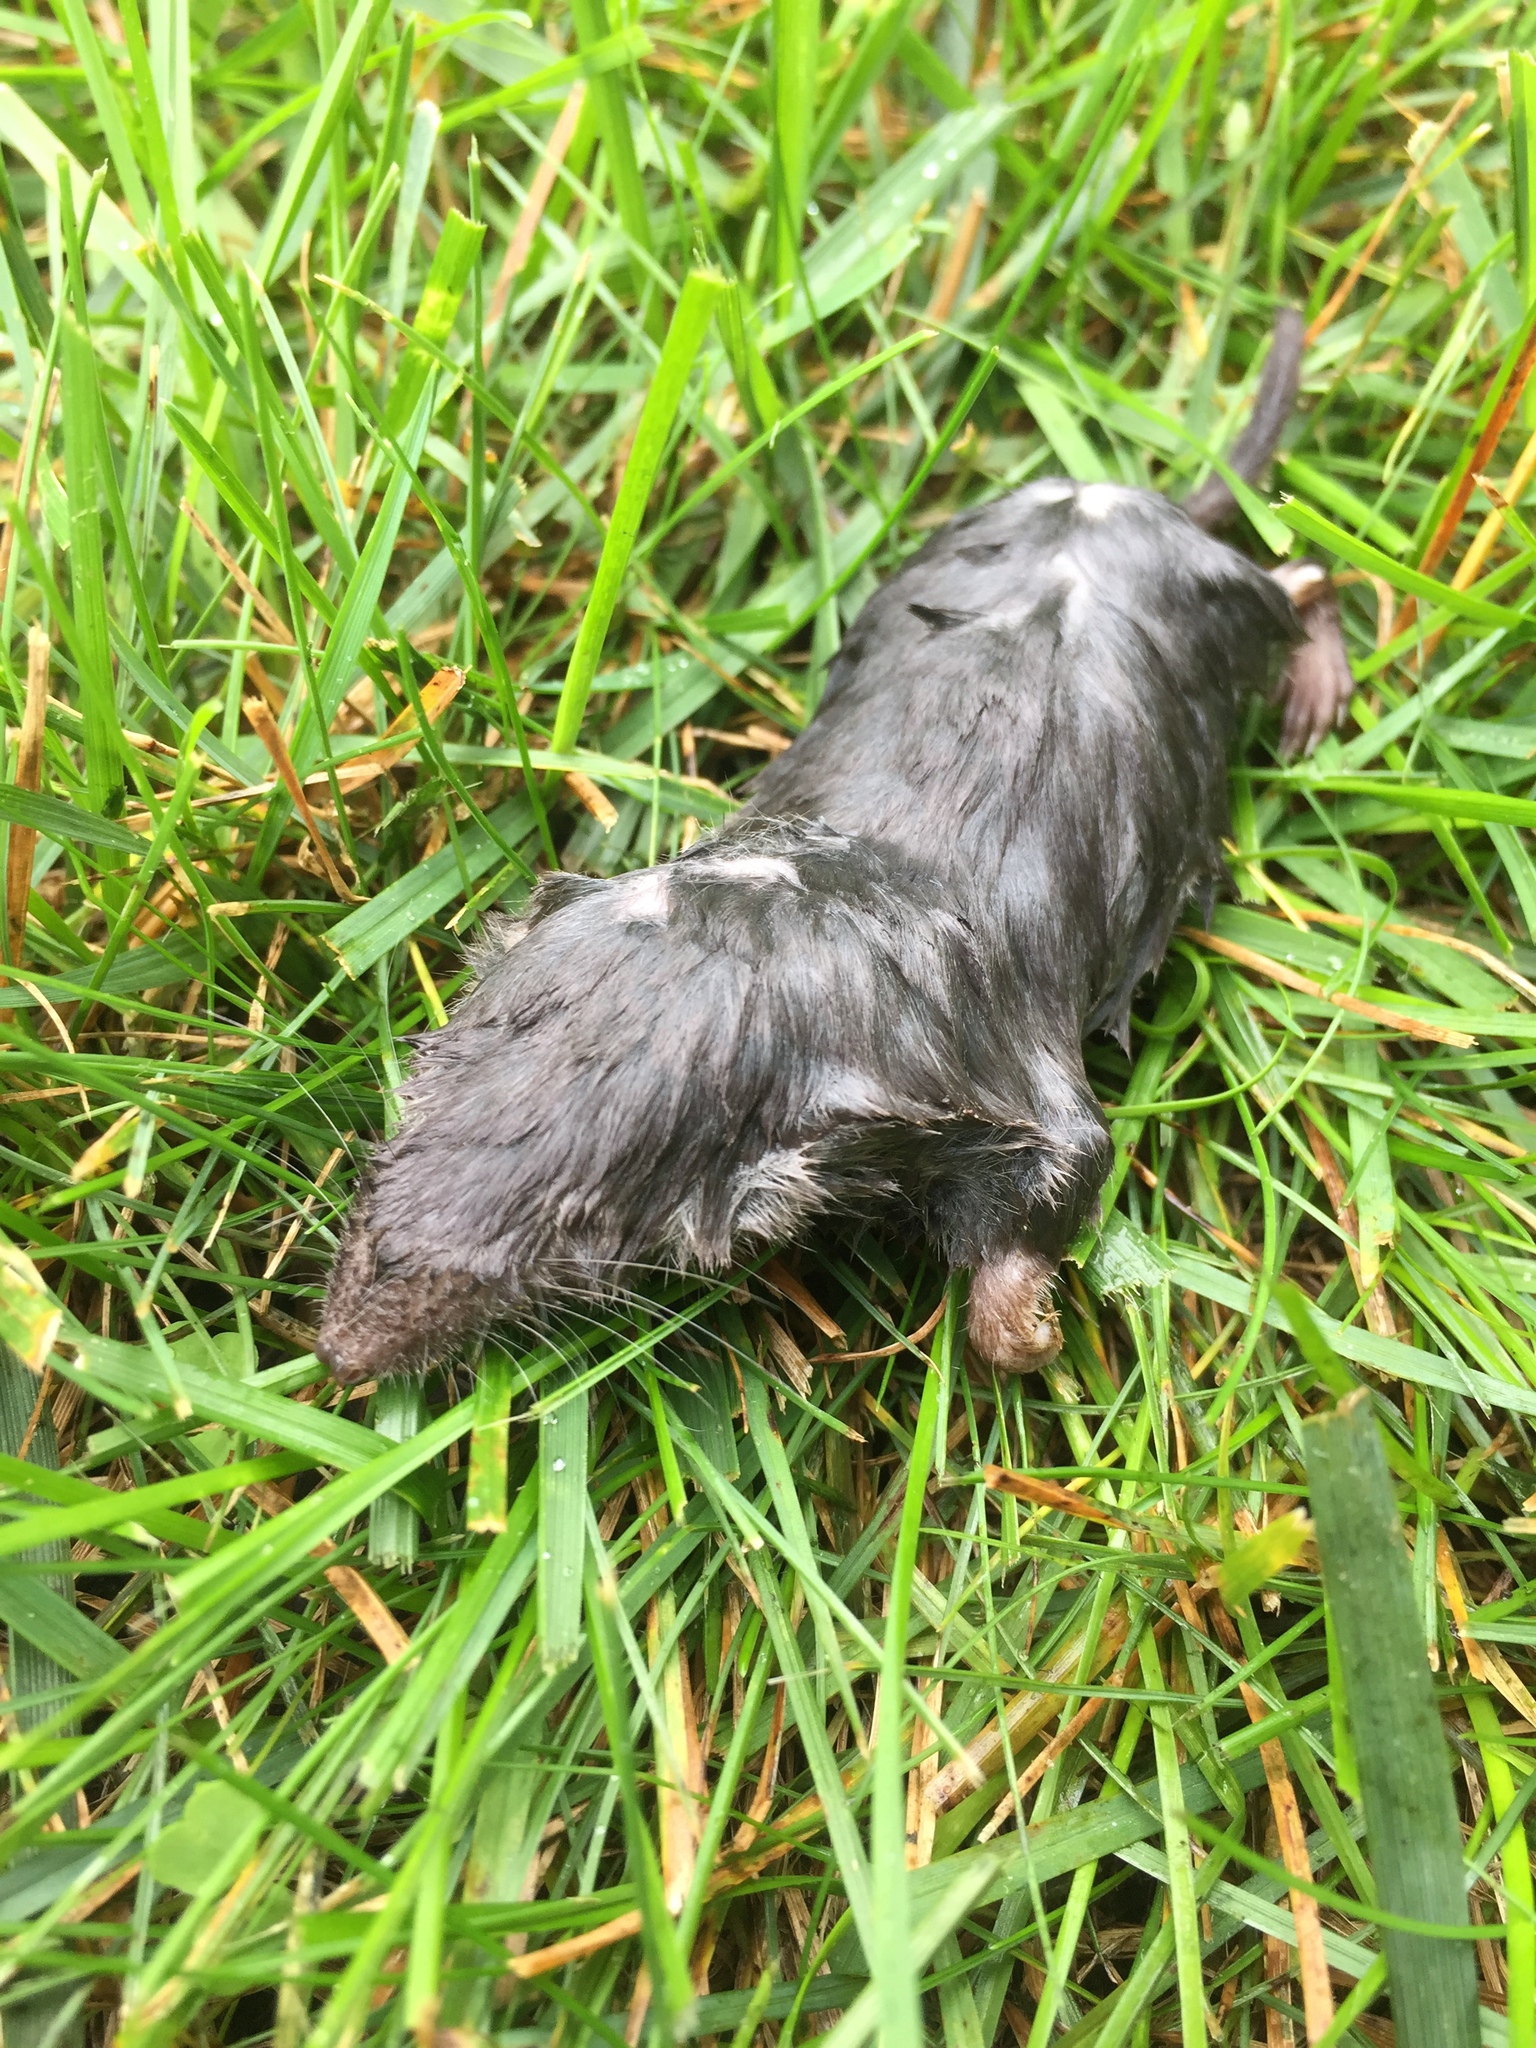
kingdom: Animalia
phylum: Chordata
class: Mammalia
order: Soricomorpha
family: Soricidae
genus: Blarina
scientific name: Blarina brevicauda
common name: Northern short-tailed shrew
